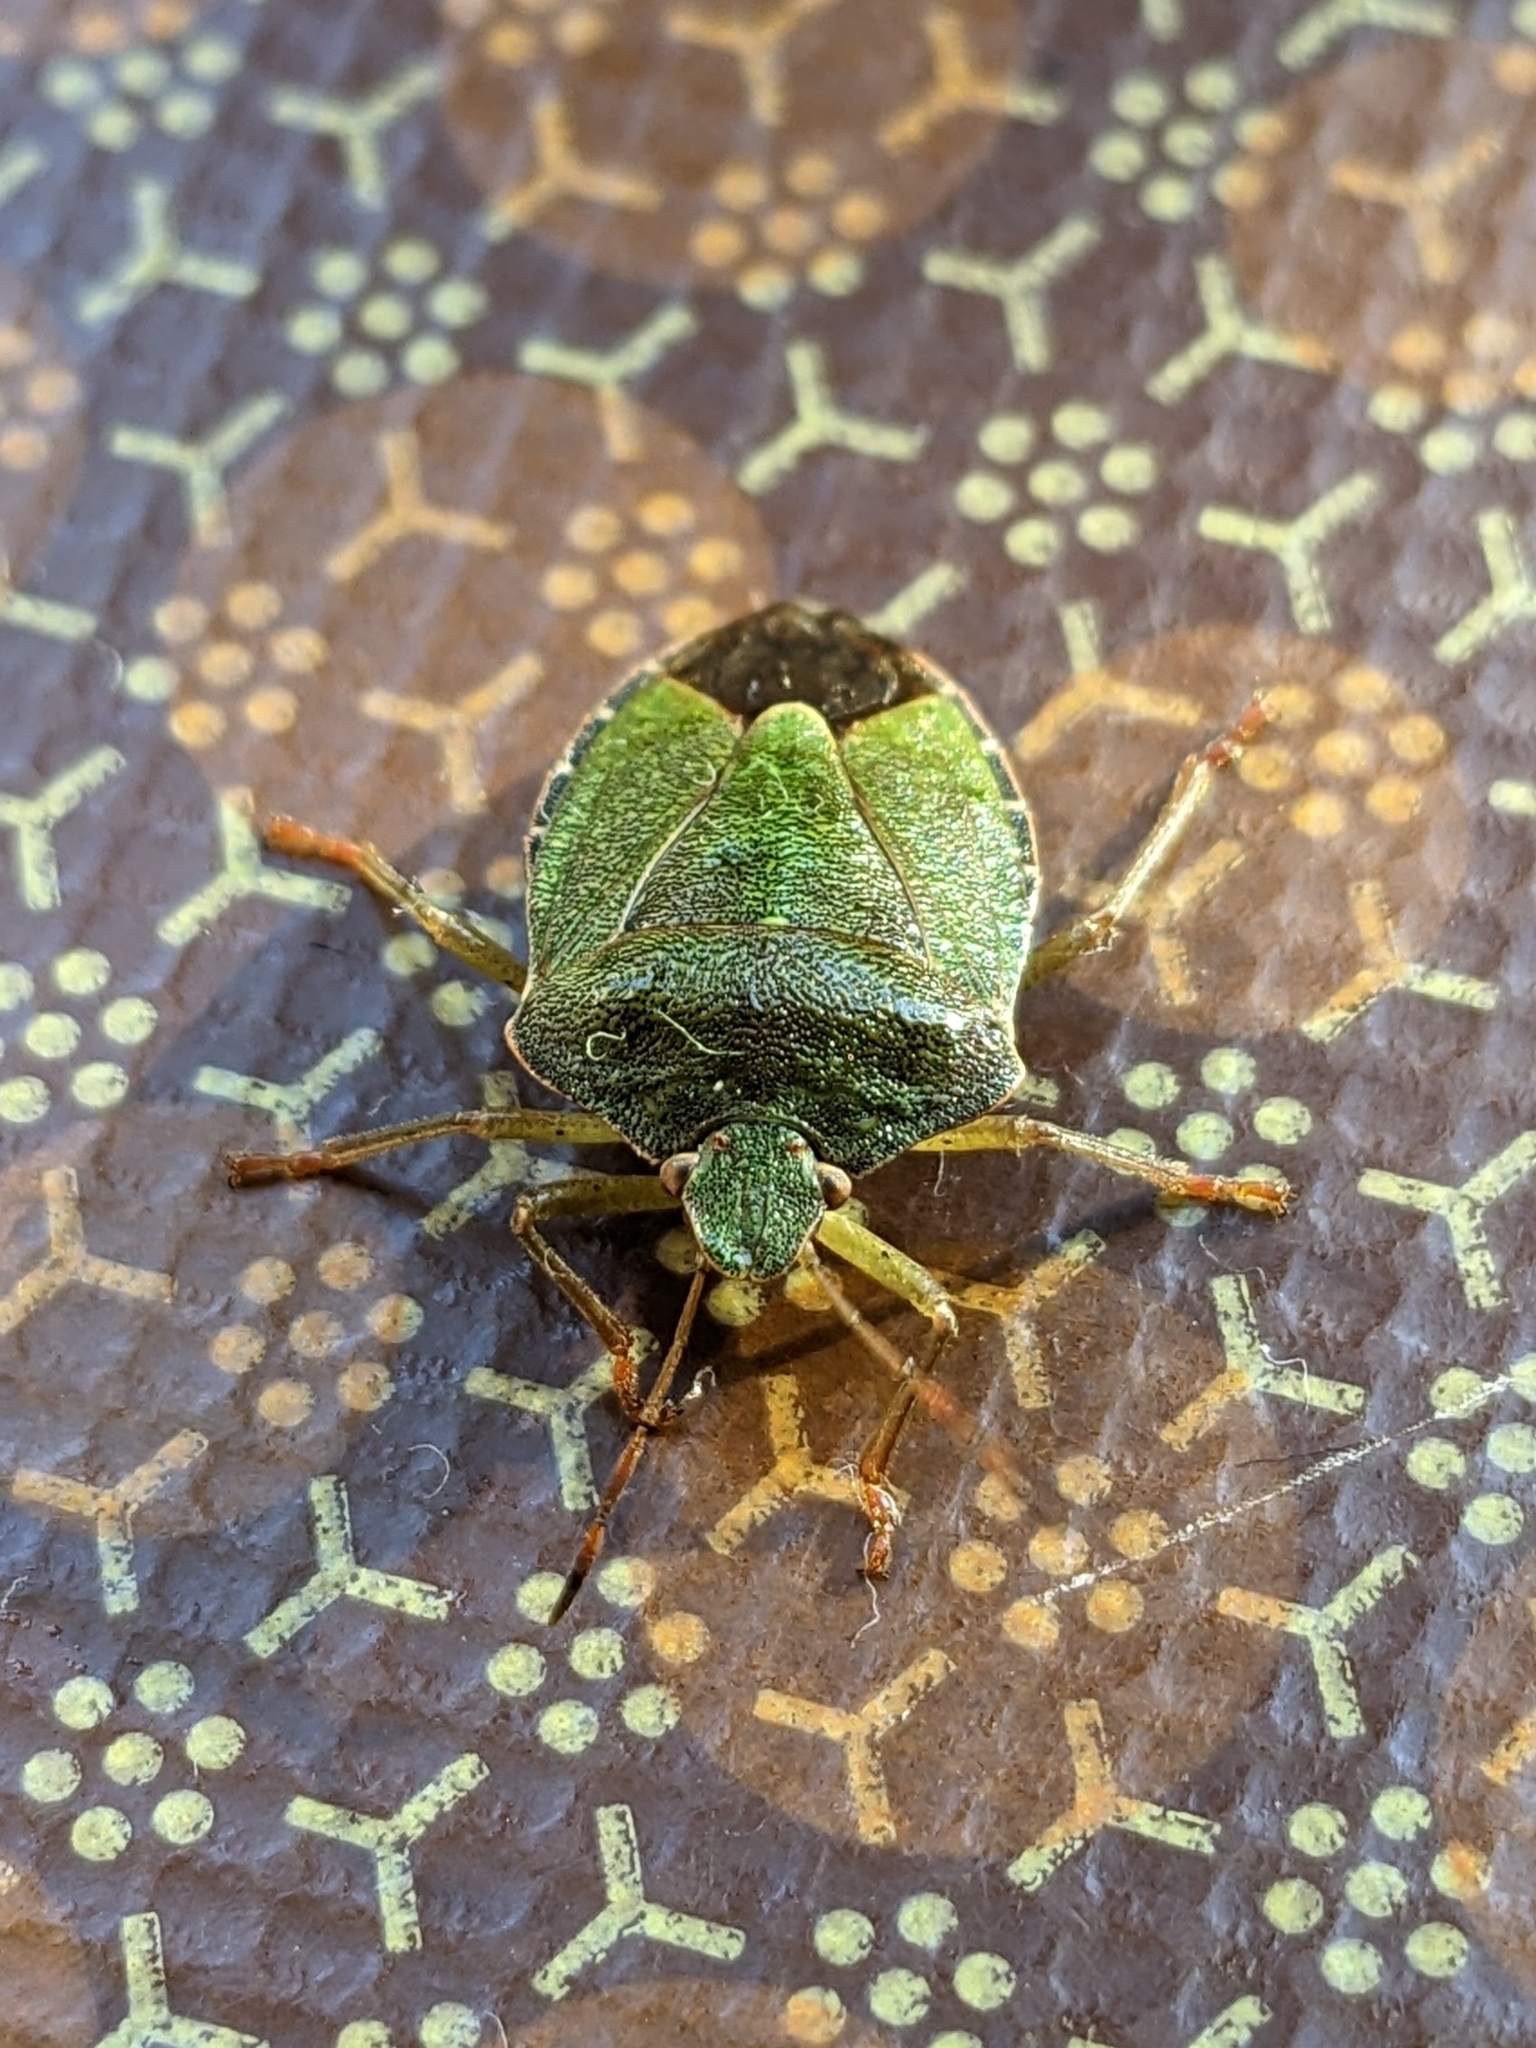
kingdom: Animalia
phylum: Arthropoda
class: Insecta
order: Hemiptera
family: Pentatomidae
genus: Palomena
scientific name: Palomena prasina
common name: Green shieldbug
